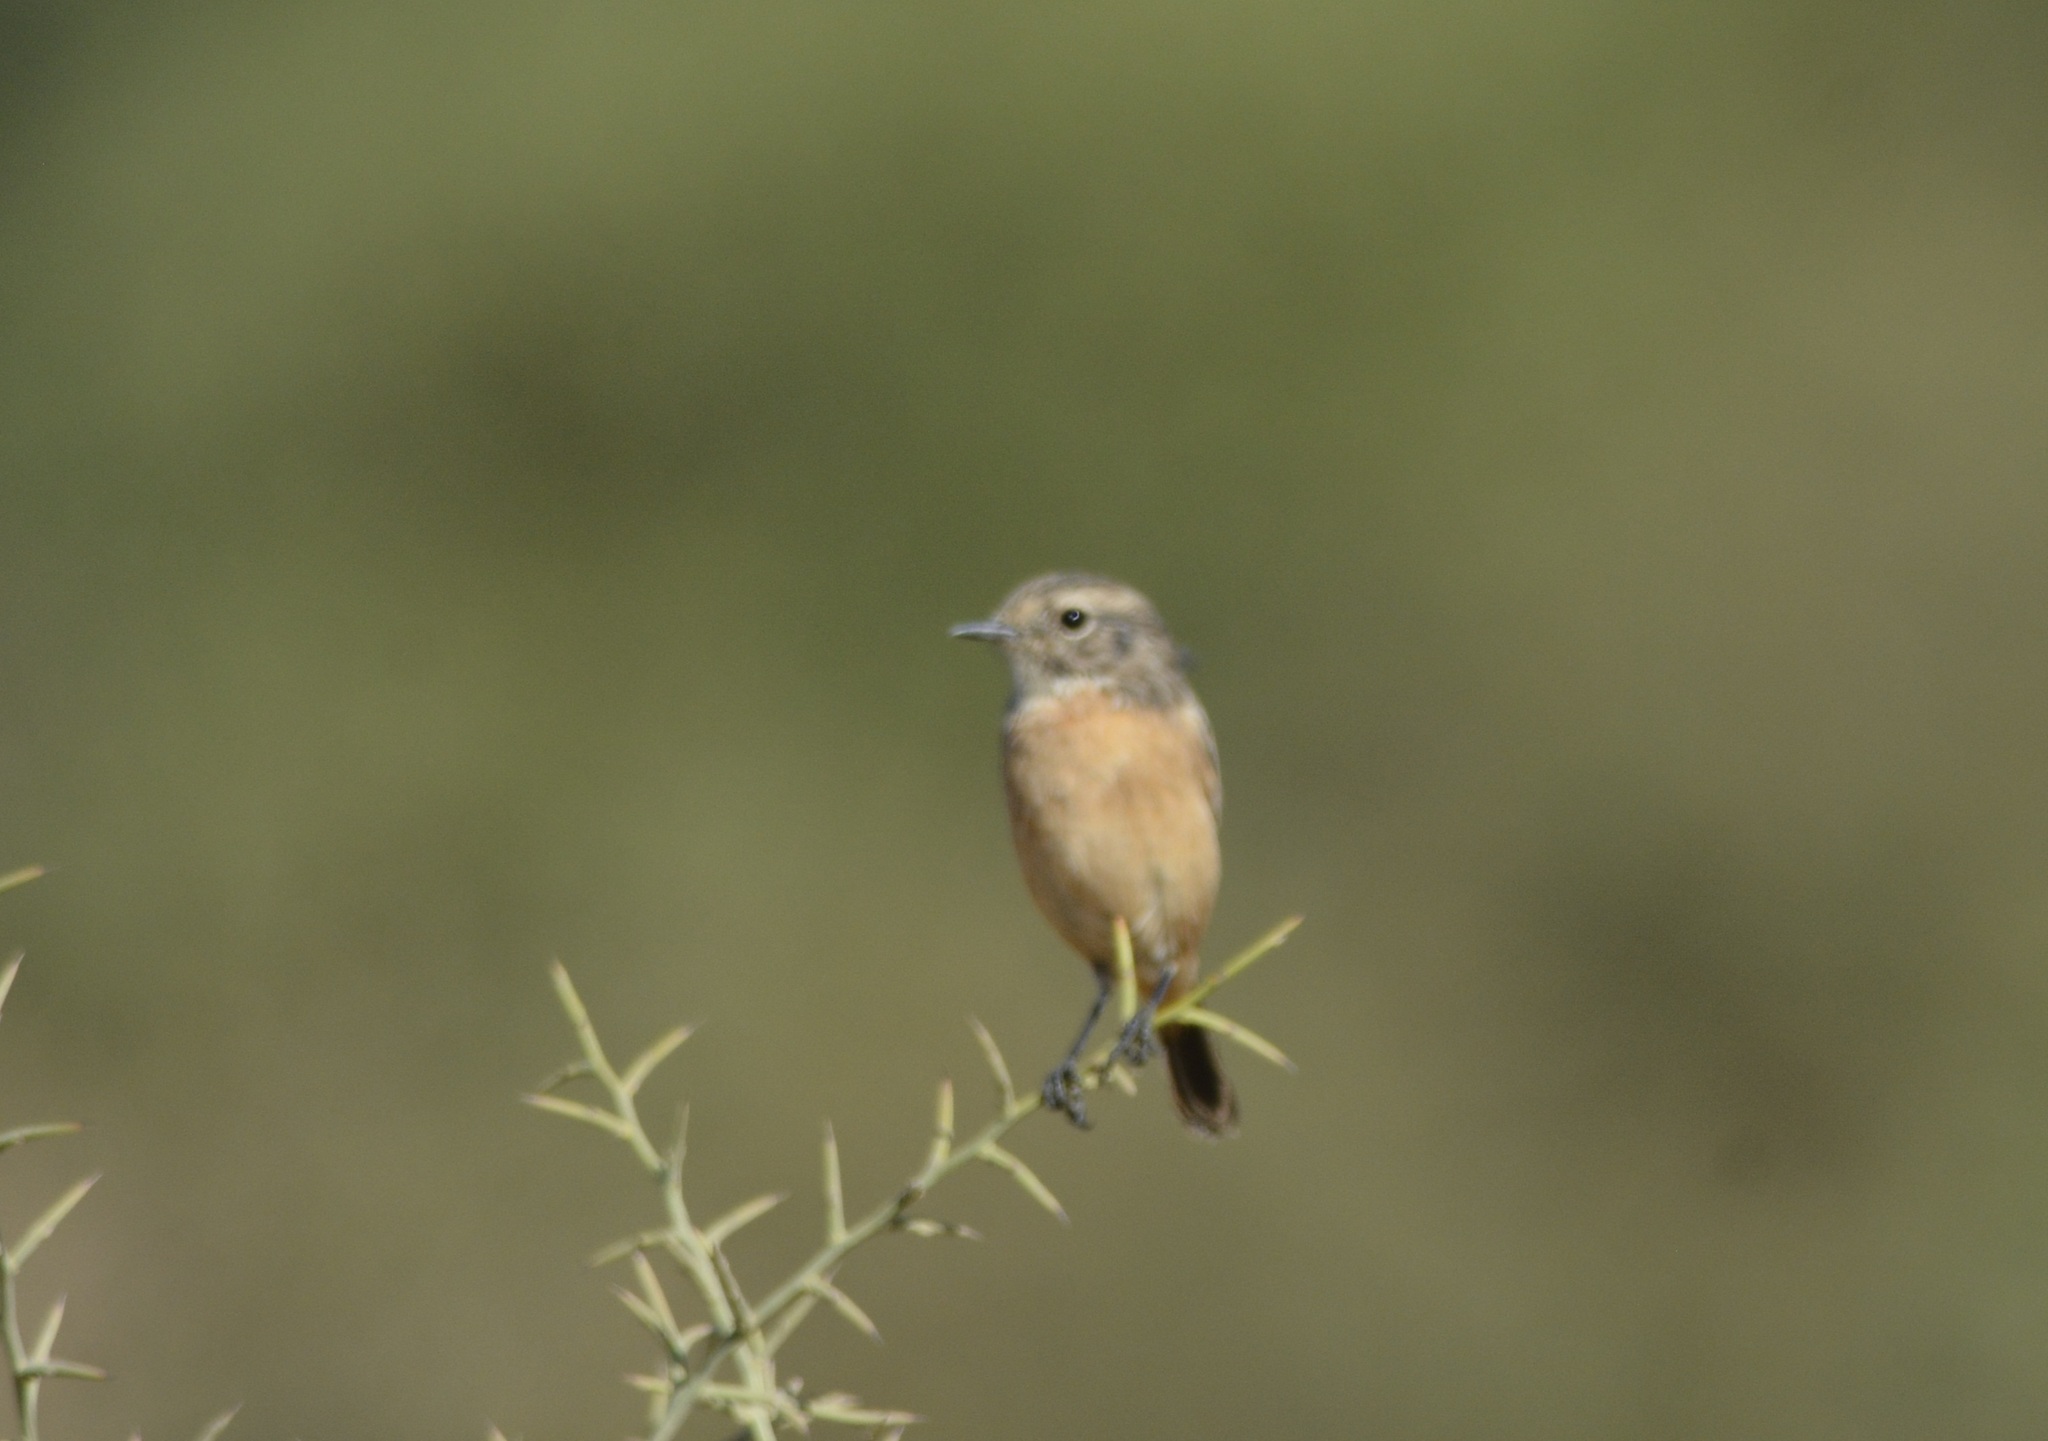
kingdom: Animalia
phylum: Chordata
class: Aves
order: Passeriformes
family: Muscicapidae
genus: Saxicola
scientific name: Saxicola rubicola
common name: European stonechat
